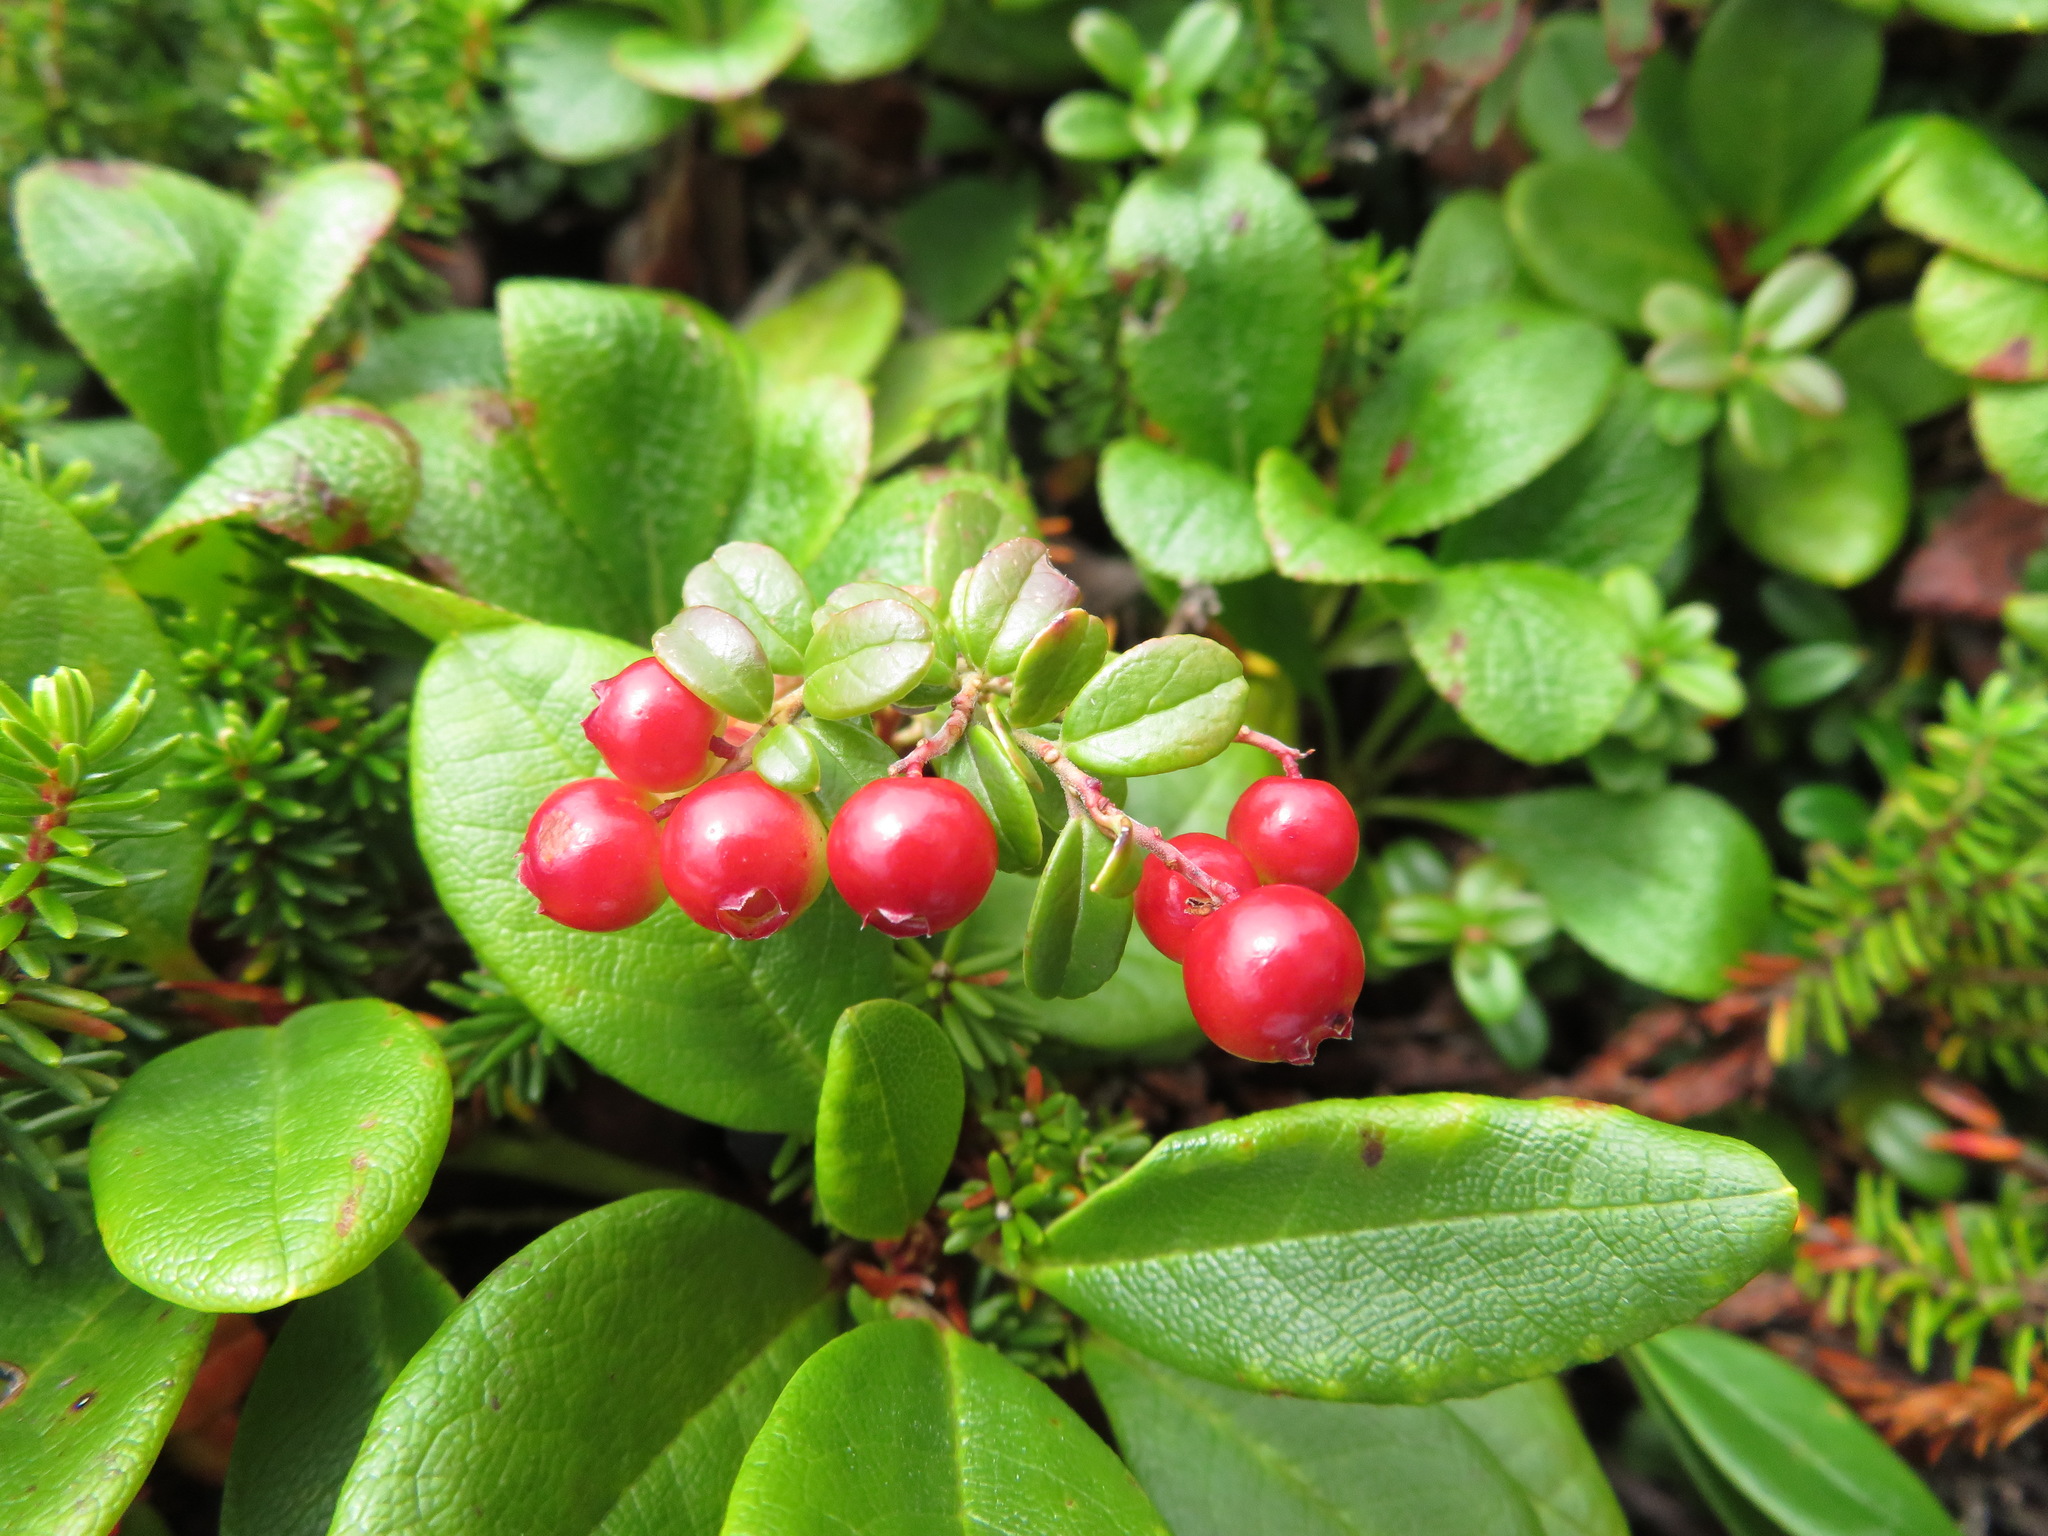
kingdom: Plantae
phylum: Tracheophyta
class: Magnoliopsida
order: Ericales
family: Ericaceae
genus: Vaccinium
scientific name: Vaccinium vitis-idaea
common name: Cowberry
